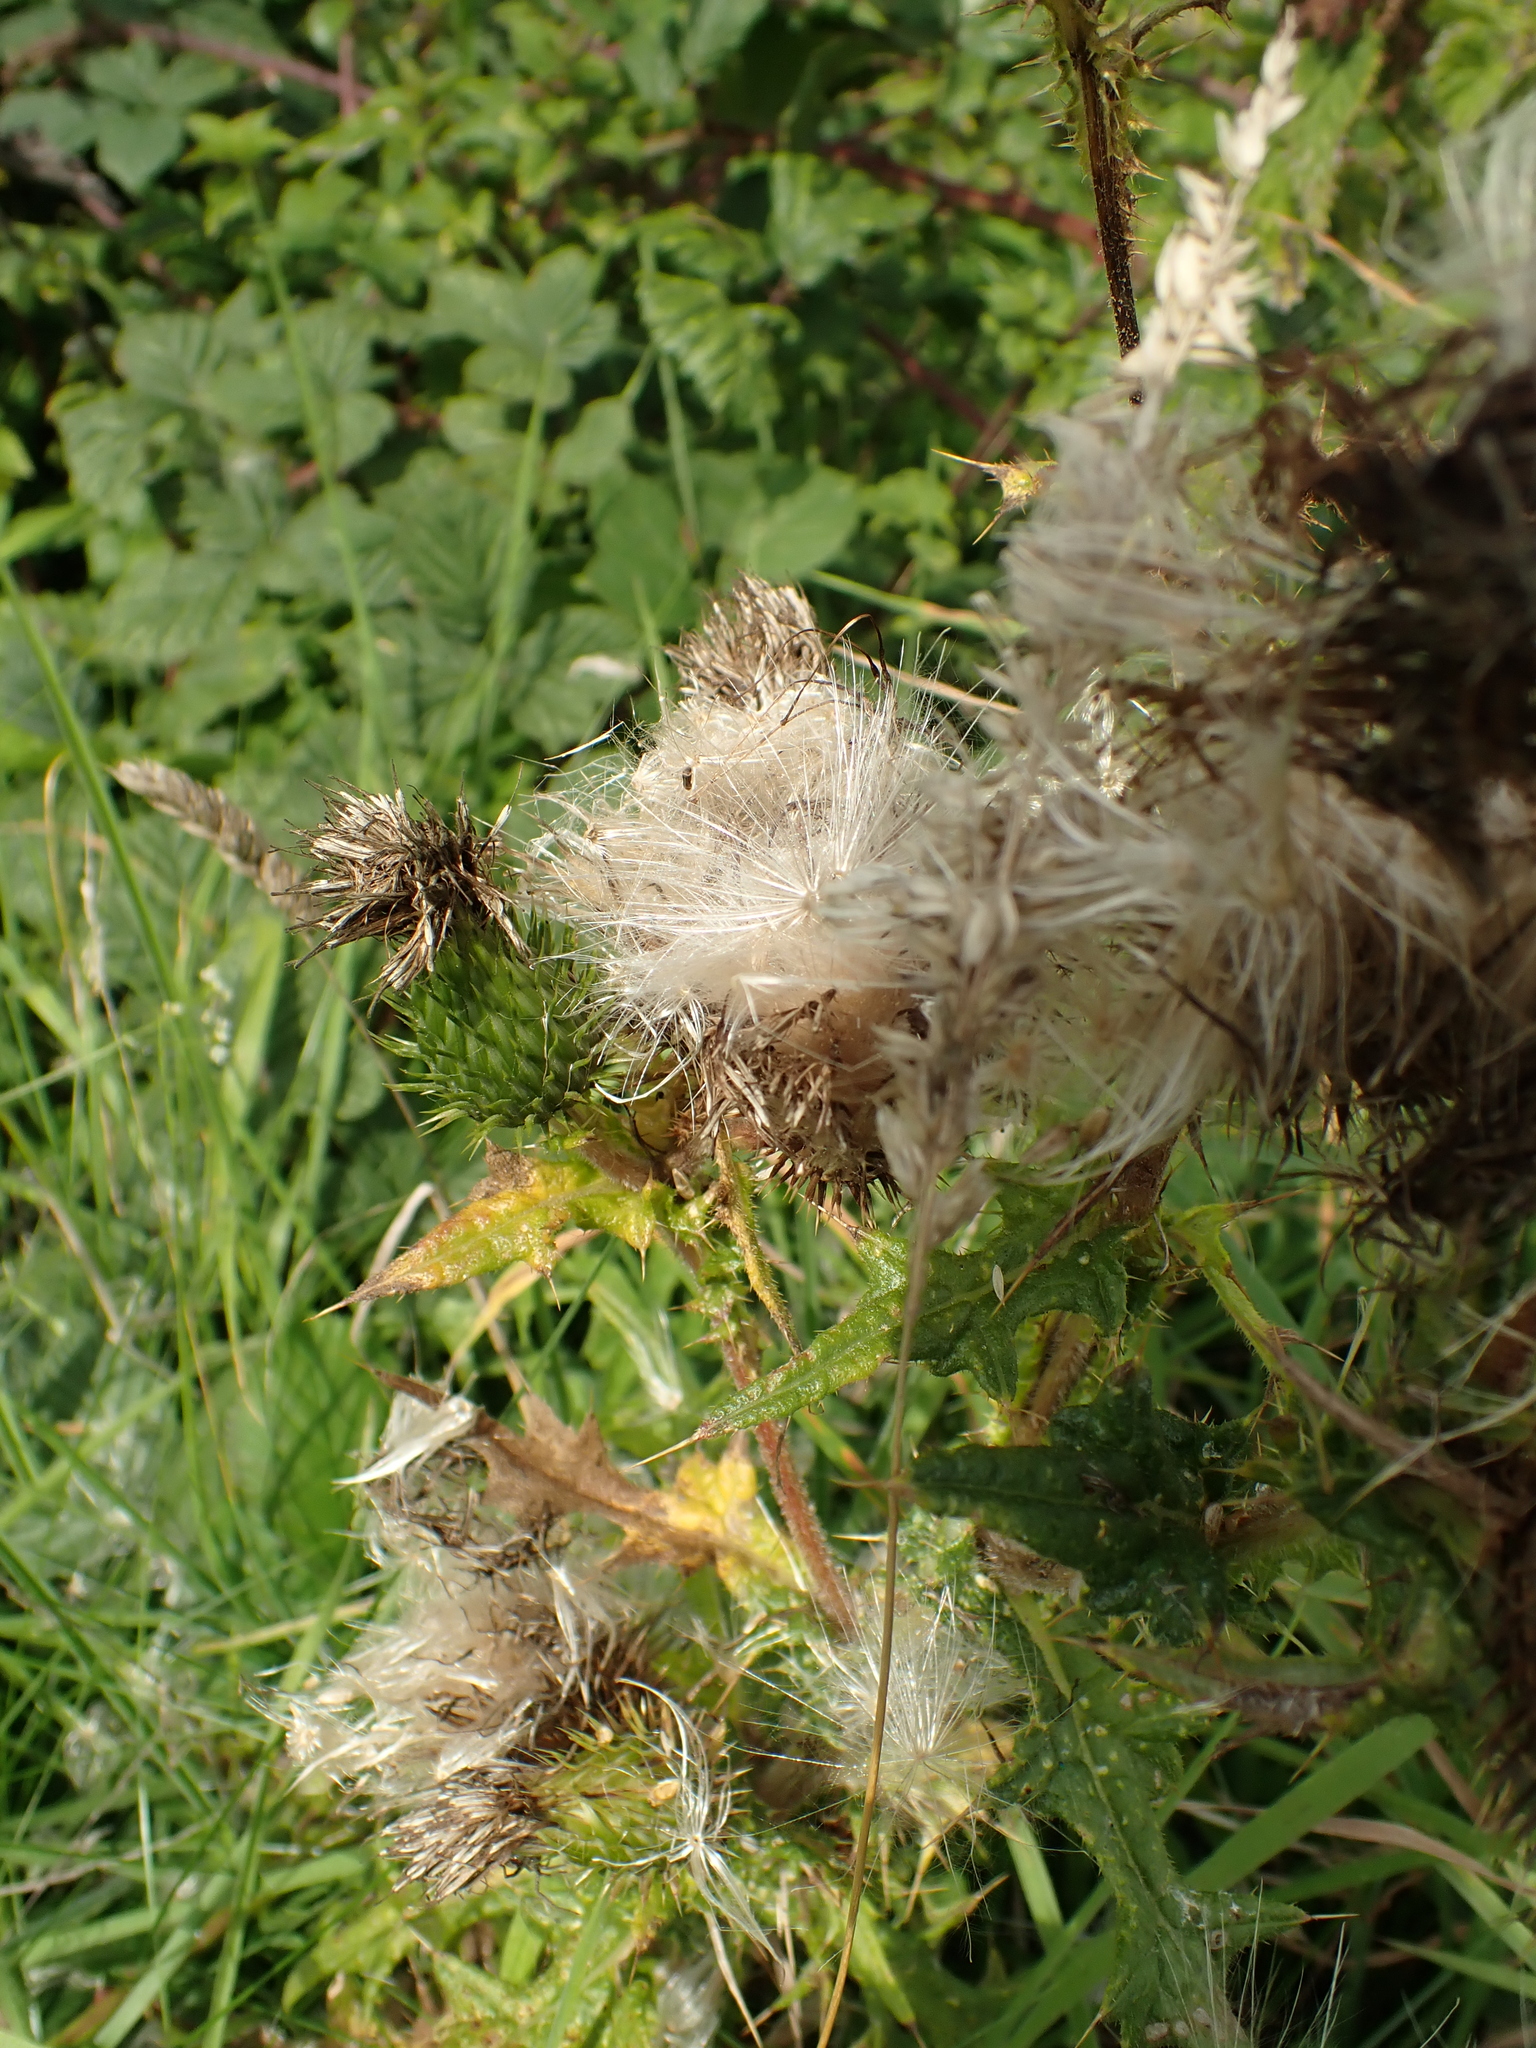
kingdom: Plantae
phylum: Tracheophyta
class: Magnoliopsida
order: Asterales
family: Asteraceae
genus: Cirsium
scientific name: Cirsium vulgare
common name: Bull thistle
